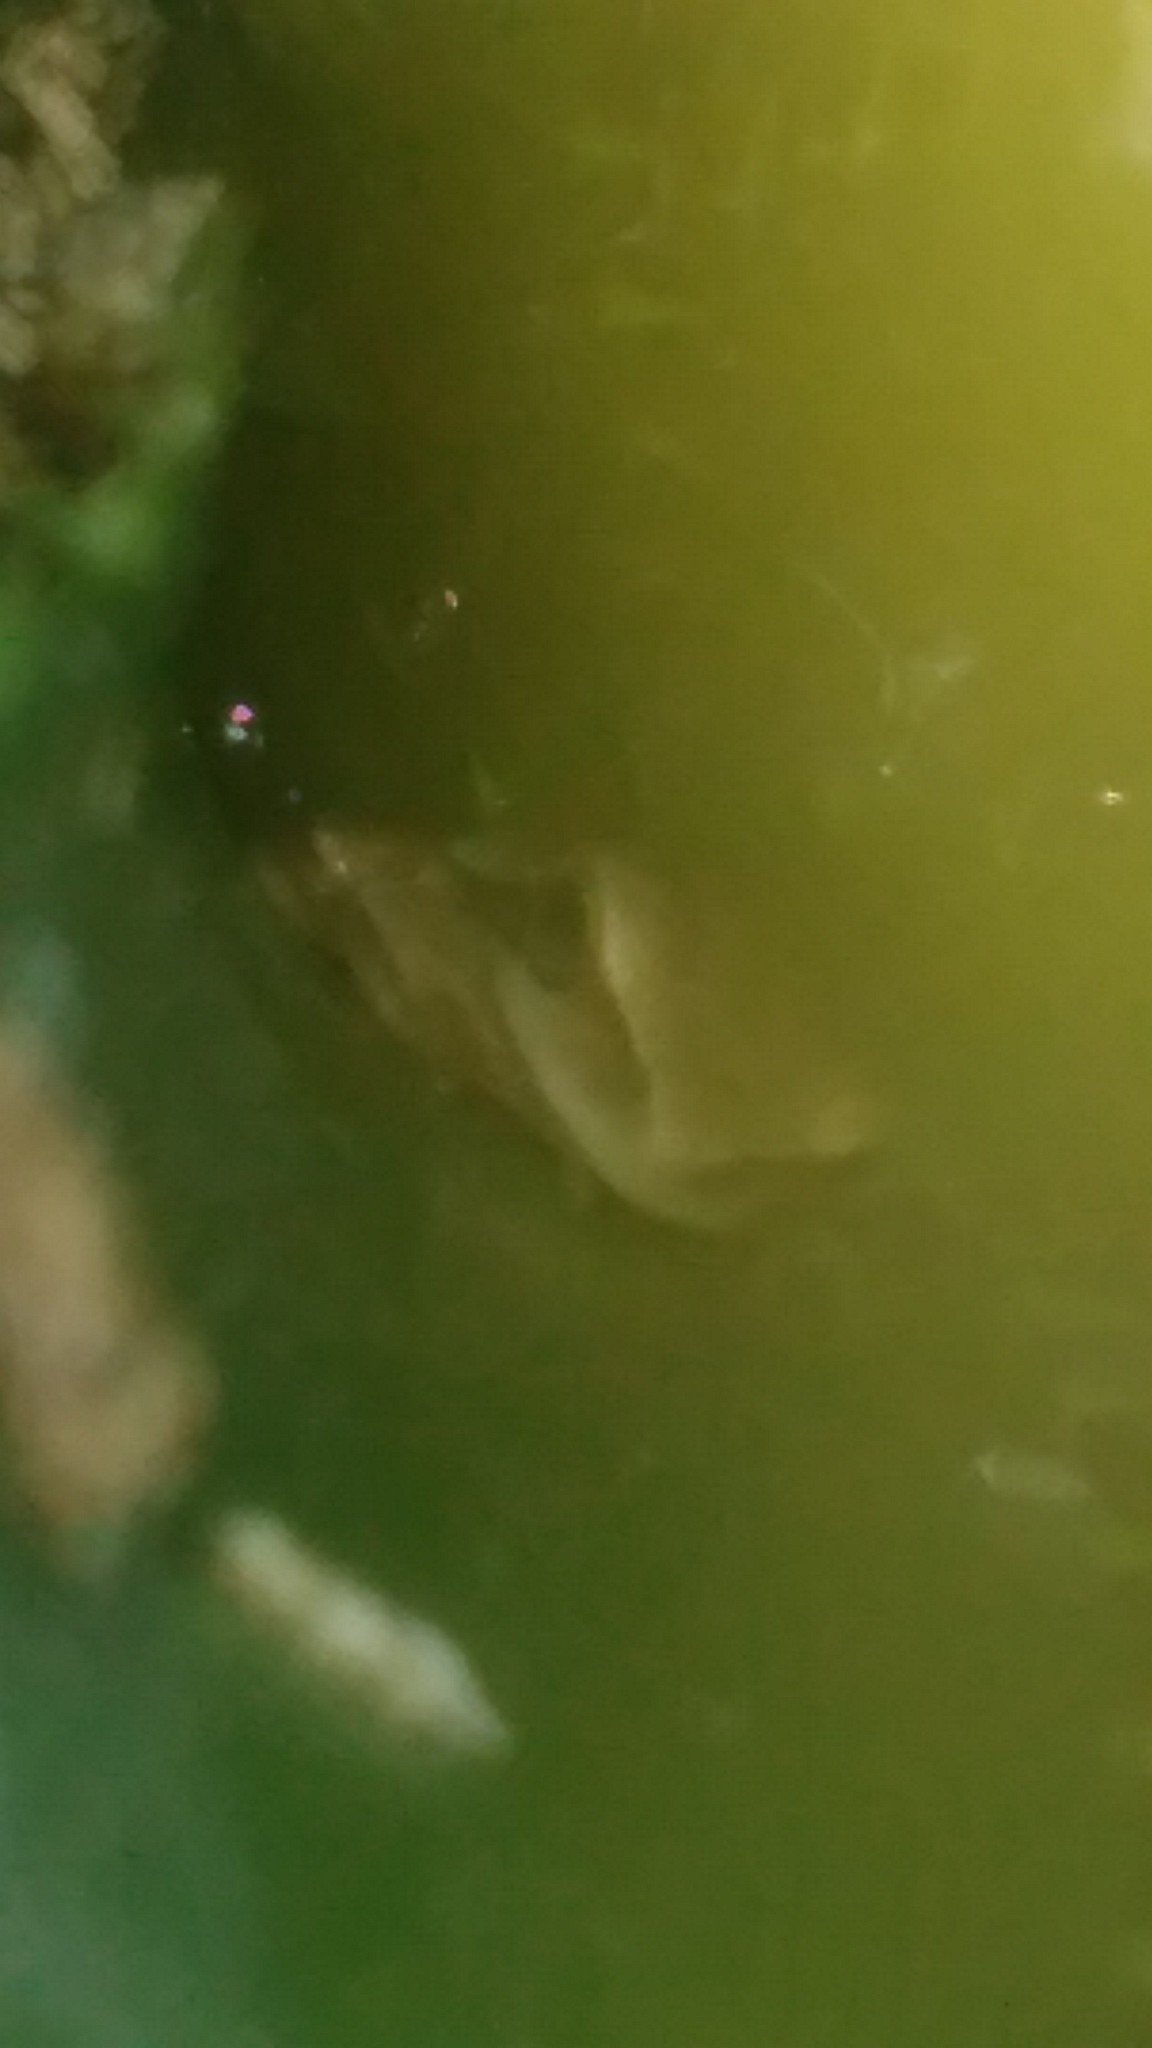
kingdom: Animalia
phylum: Chordata
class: Amphibia
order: Anura
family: Hylidae
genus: Boana
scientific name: Boana pulchella
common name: Montevideo treefrog
